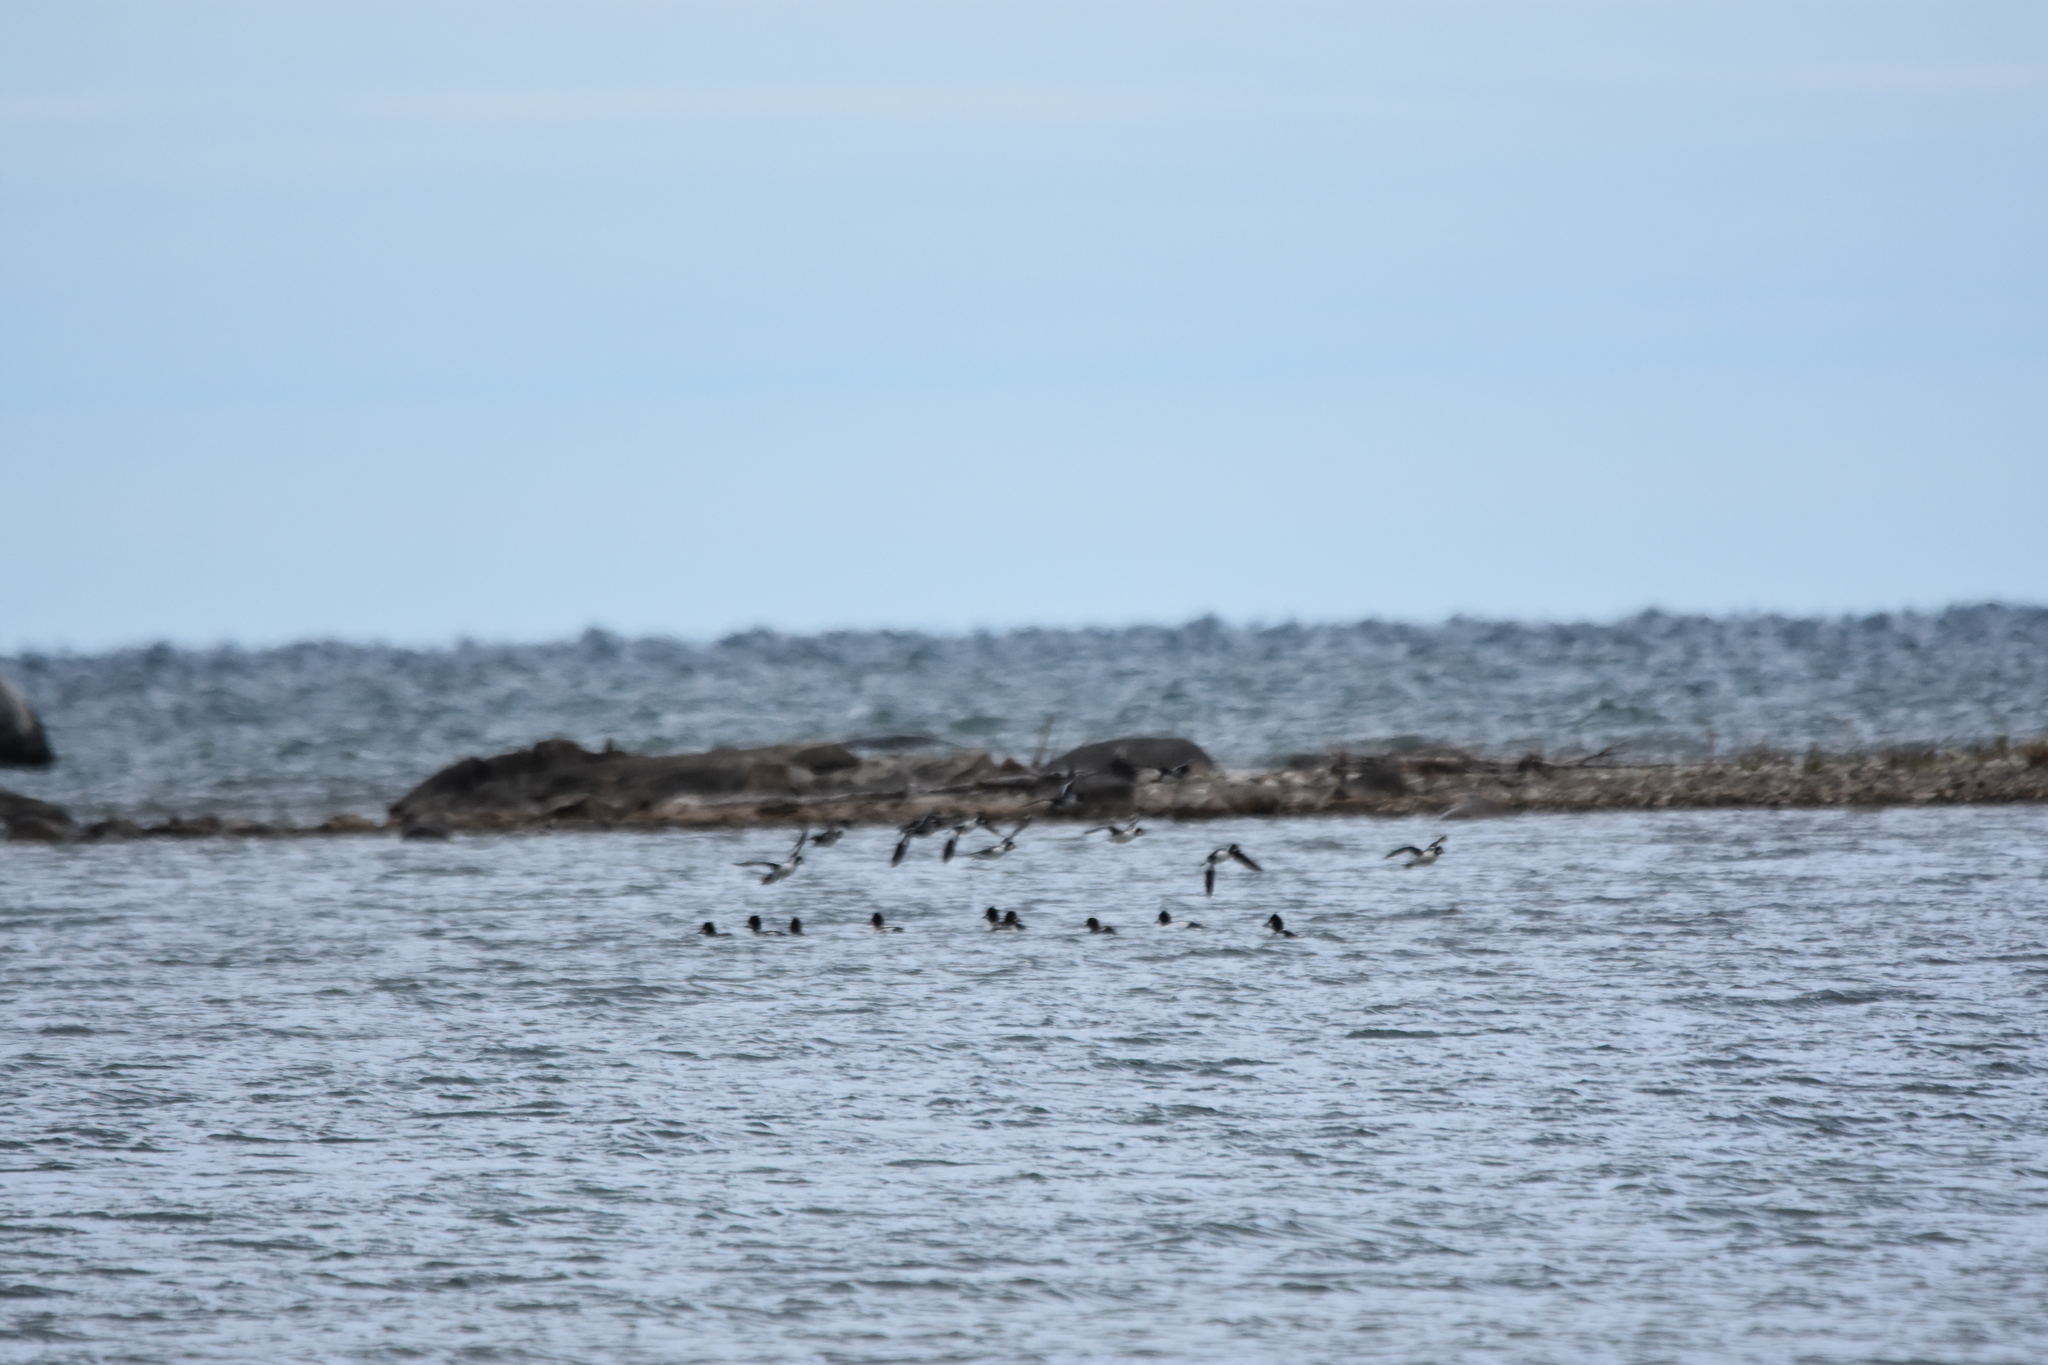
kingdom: Animalia
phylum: Chordata
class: Aves
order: Anseriformes
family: Anatidae
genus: Bucephala
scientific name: Bucephala clangula
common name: Common goldeneye
